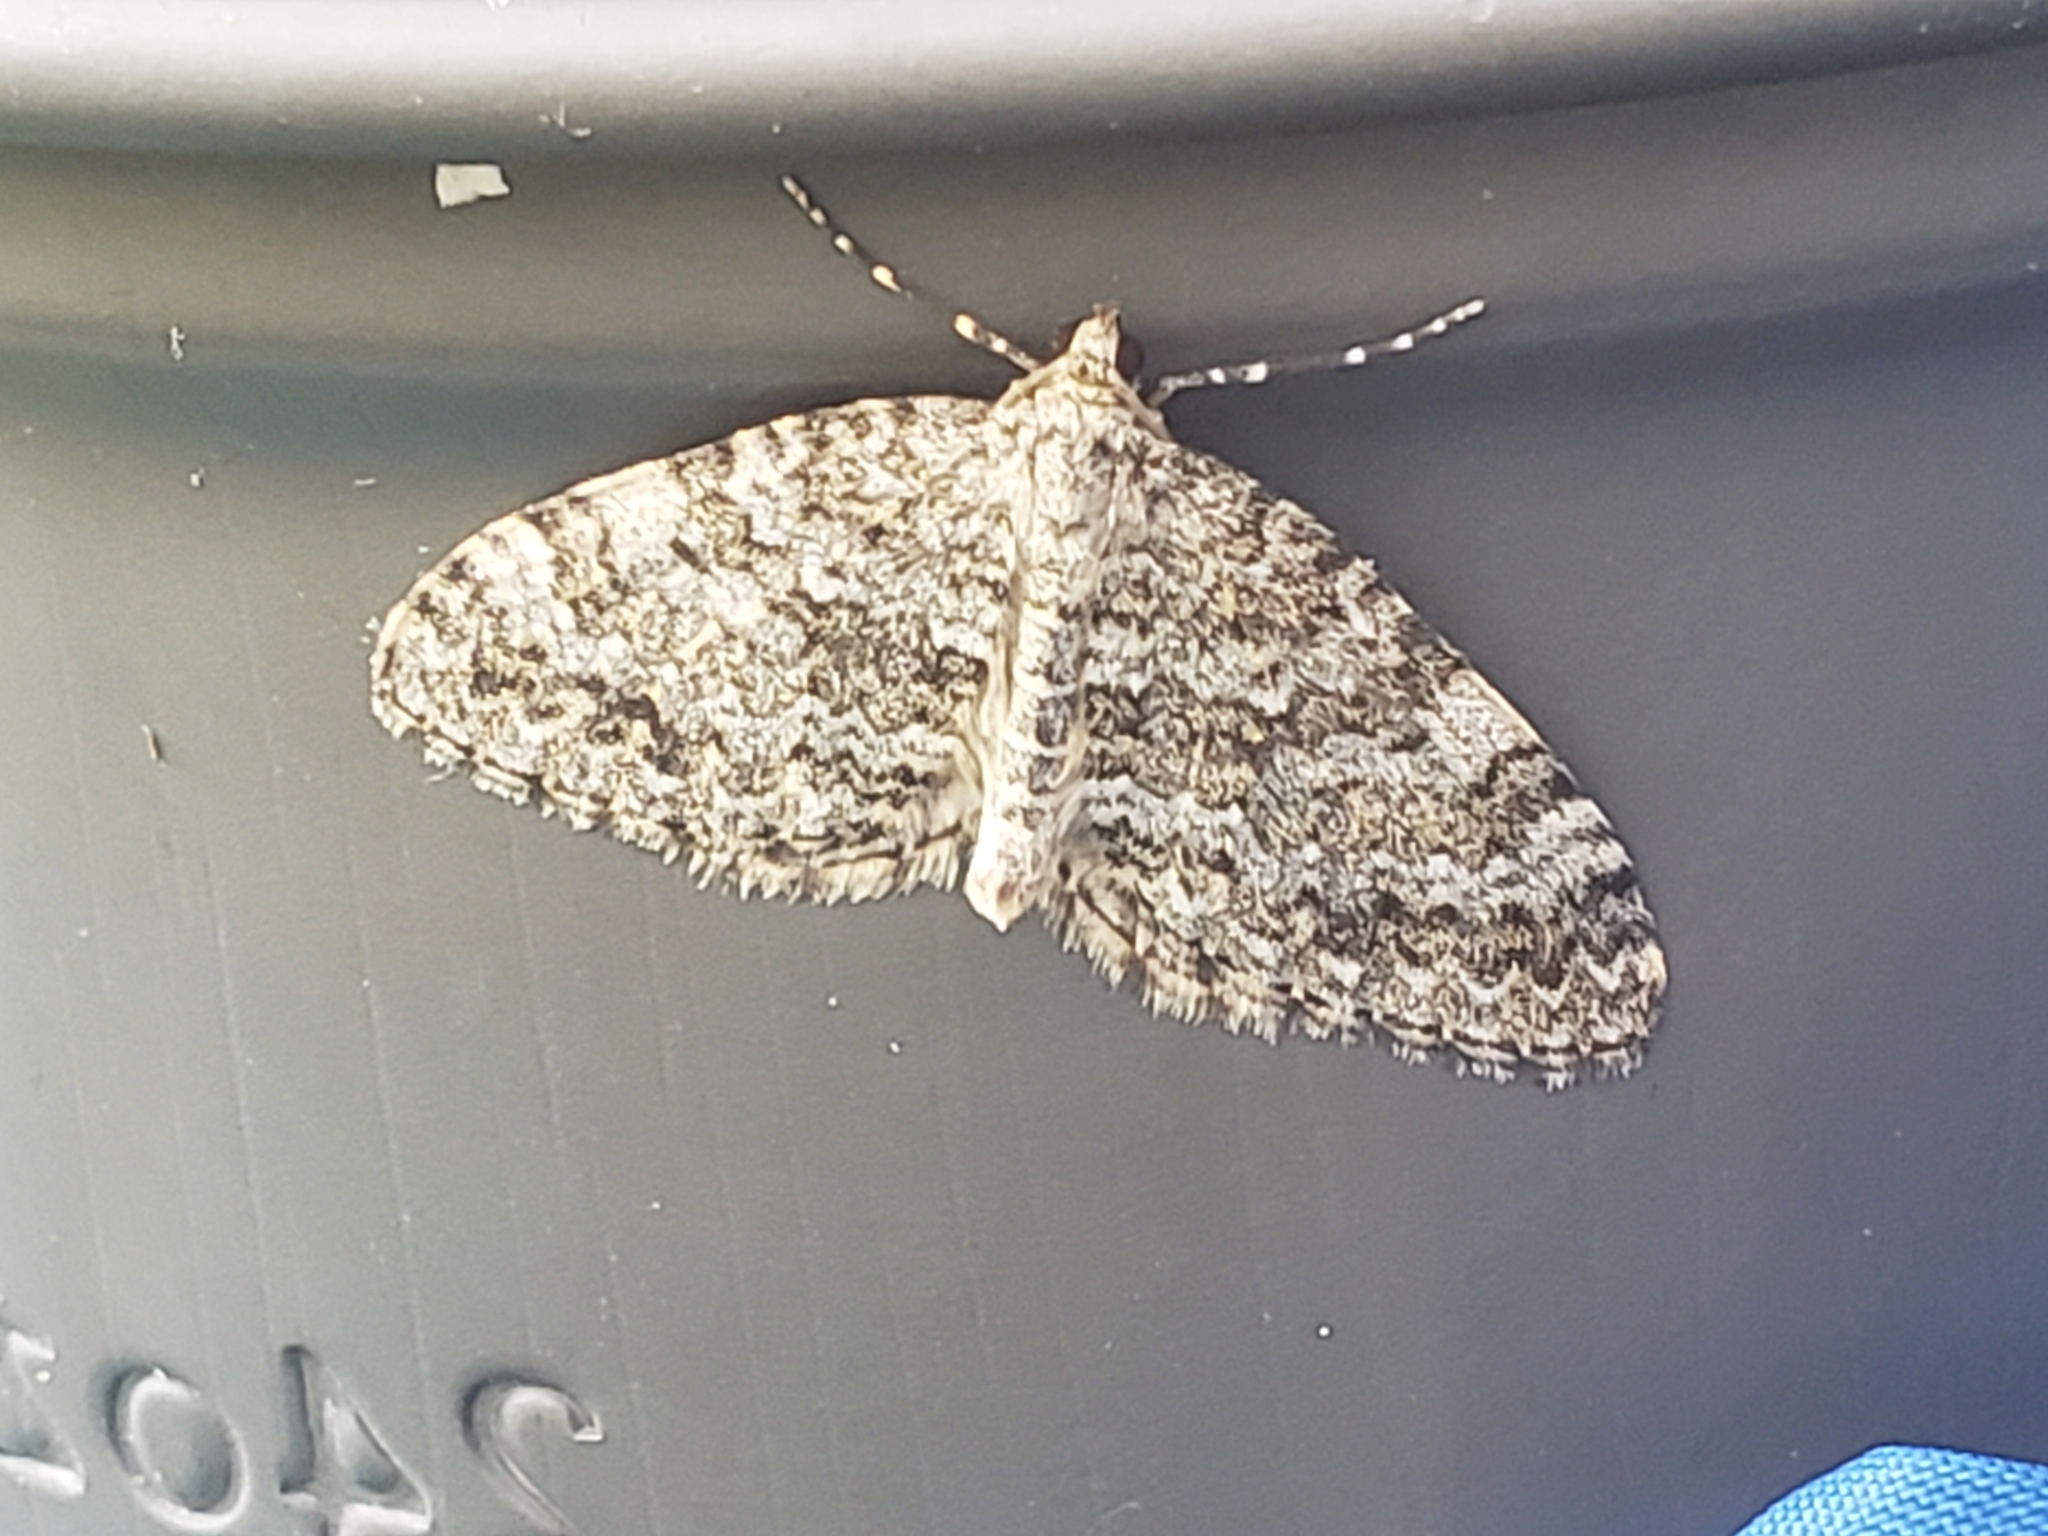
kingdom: Animalia
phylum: Arthropoda
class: Insecta
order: Lepidoptera
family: Geometridae
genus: Entephria
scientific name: Entephria caesiata
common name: Grey mountain moth
